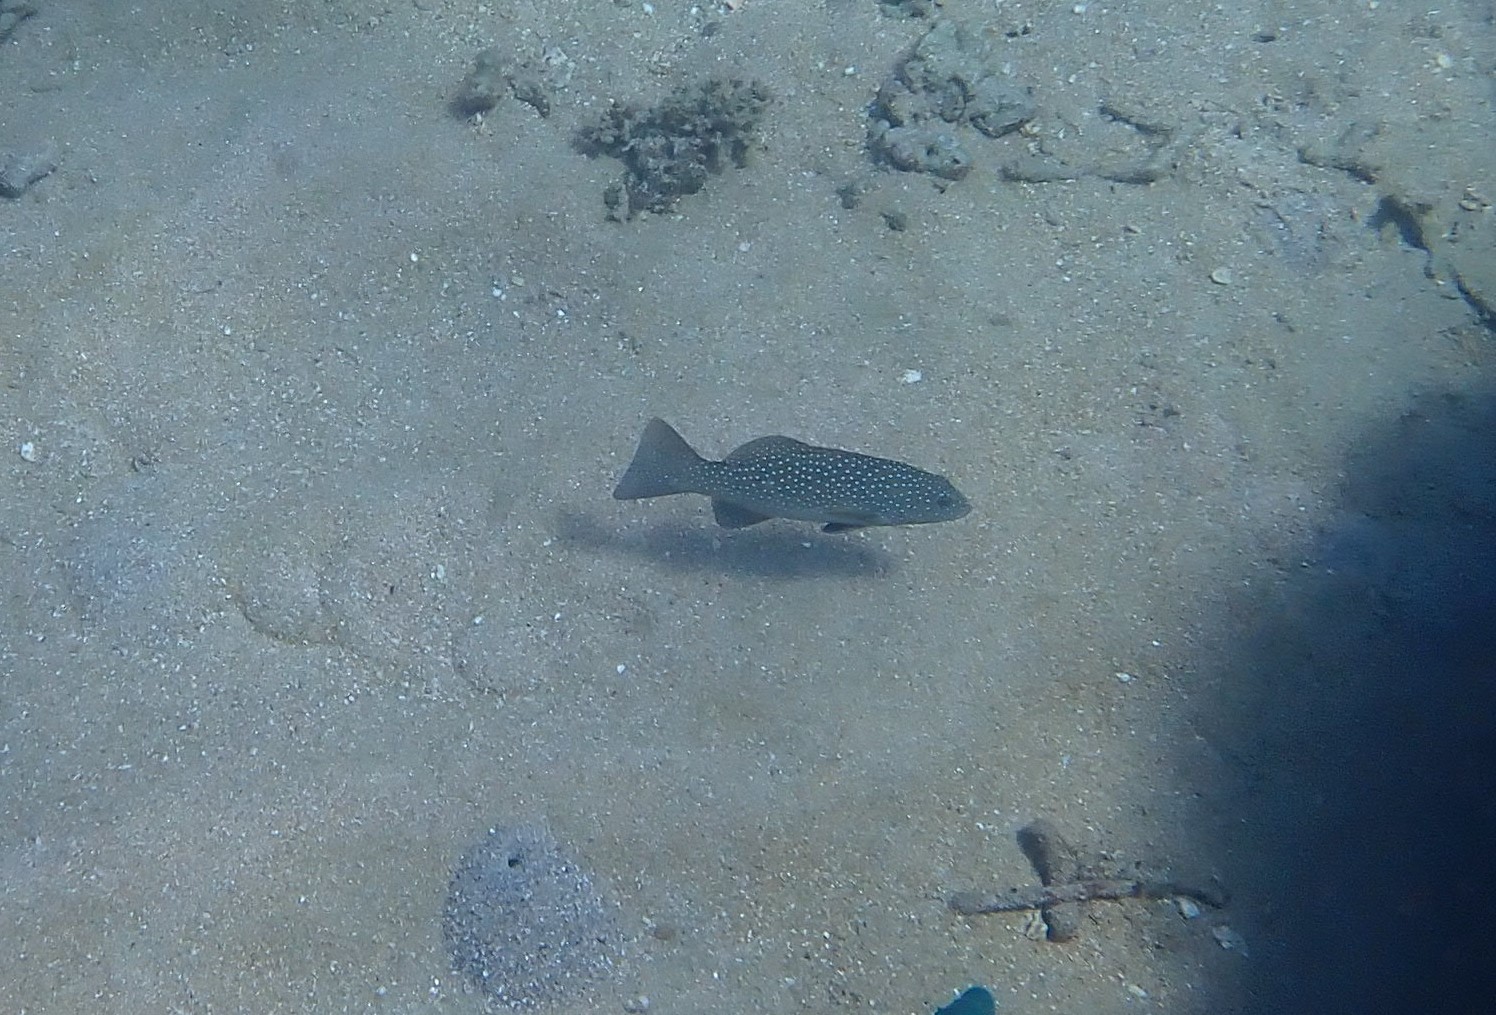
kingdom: Animalia
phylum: Chordata
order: Perciformes
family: Serranidae
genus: Plectropomus
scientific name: Plectropomus leopardus
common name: Coral trout
